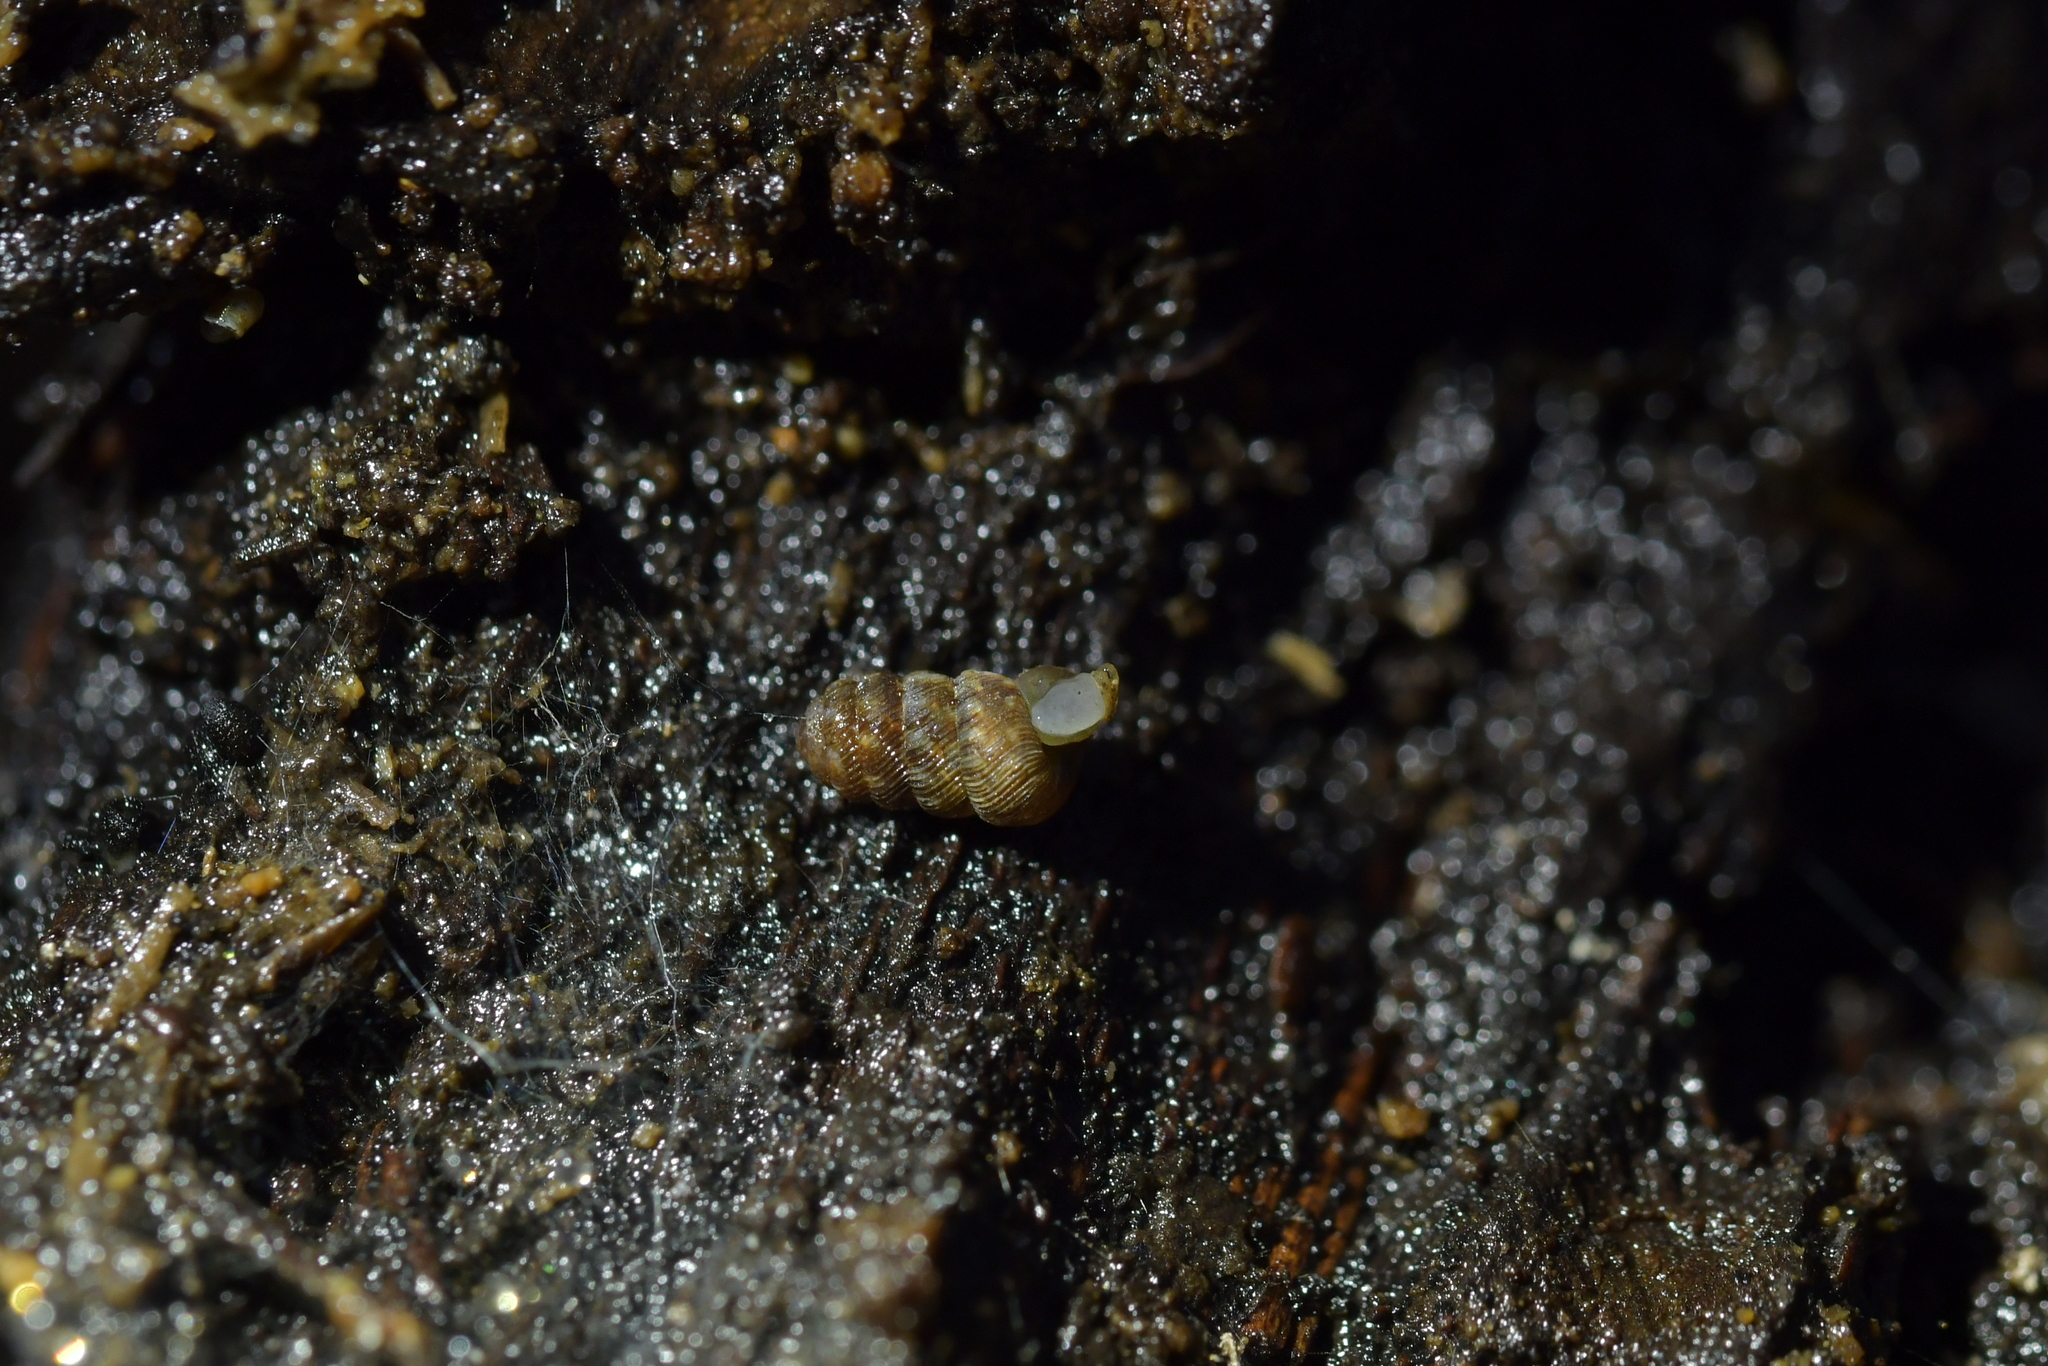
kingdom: Animalia
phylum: Mollusca
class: Gastropoda
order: Stylommatophora
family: Charopidae
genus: Phenacharopa
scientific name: Phenacharopa novoseelandica
